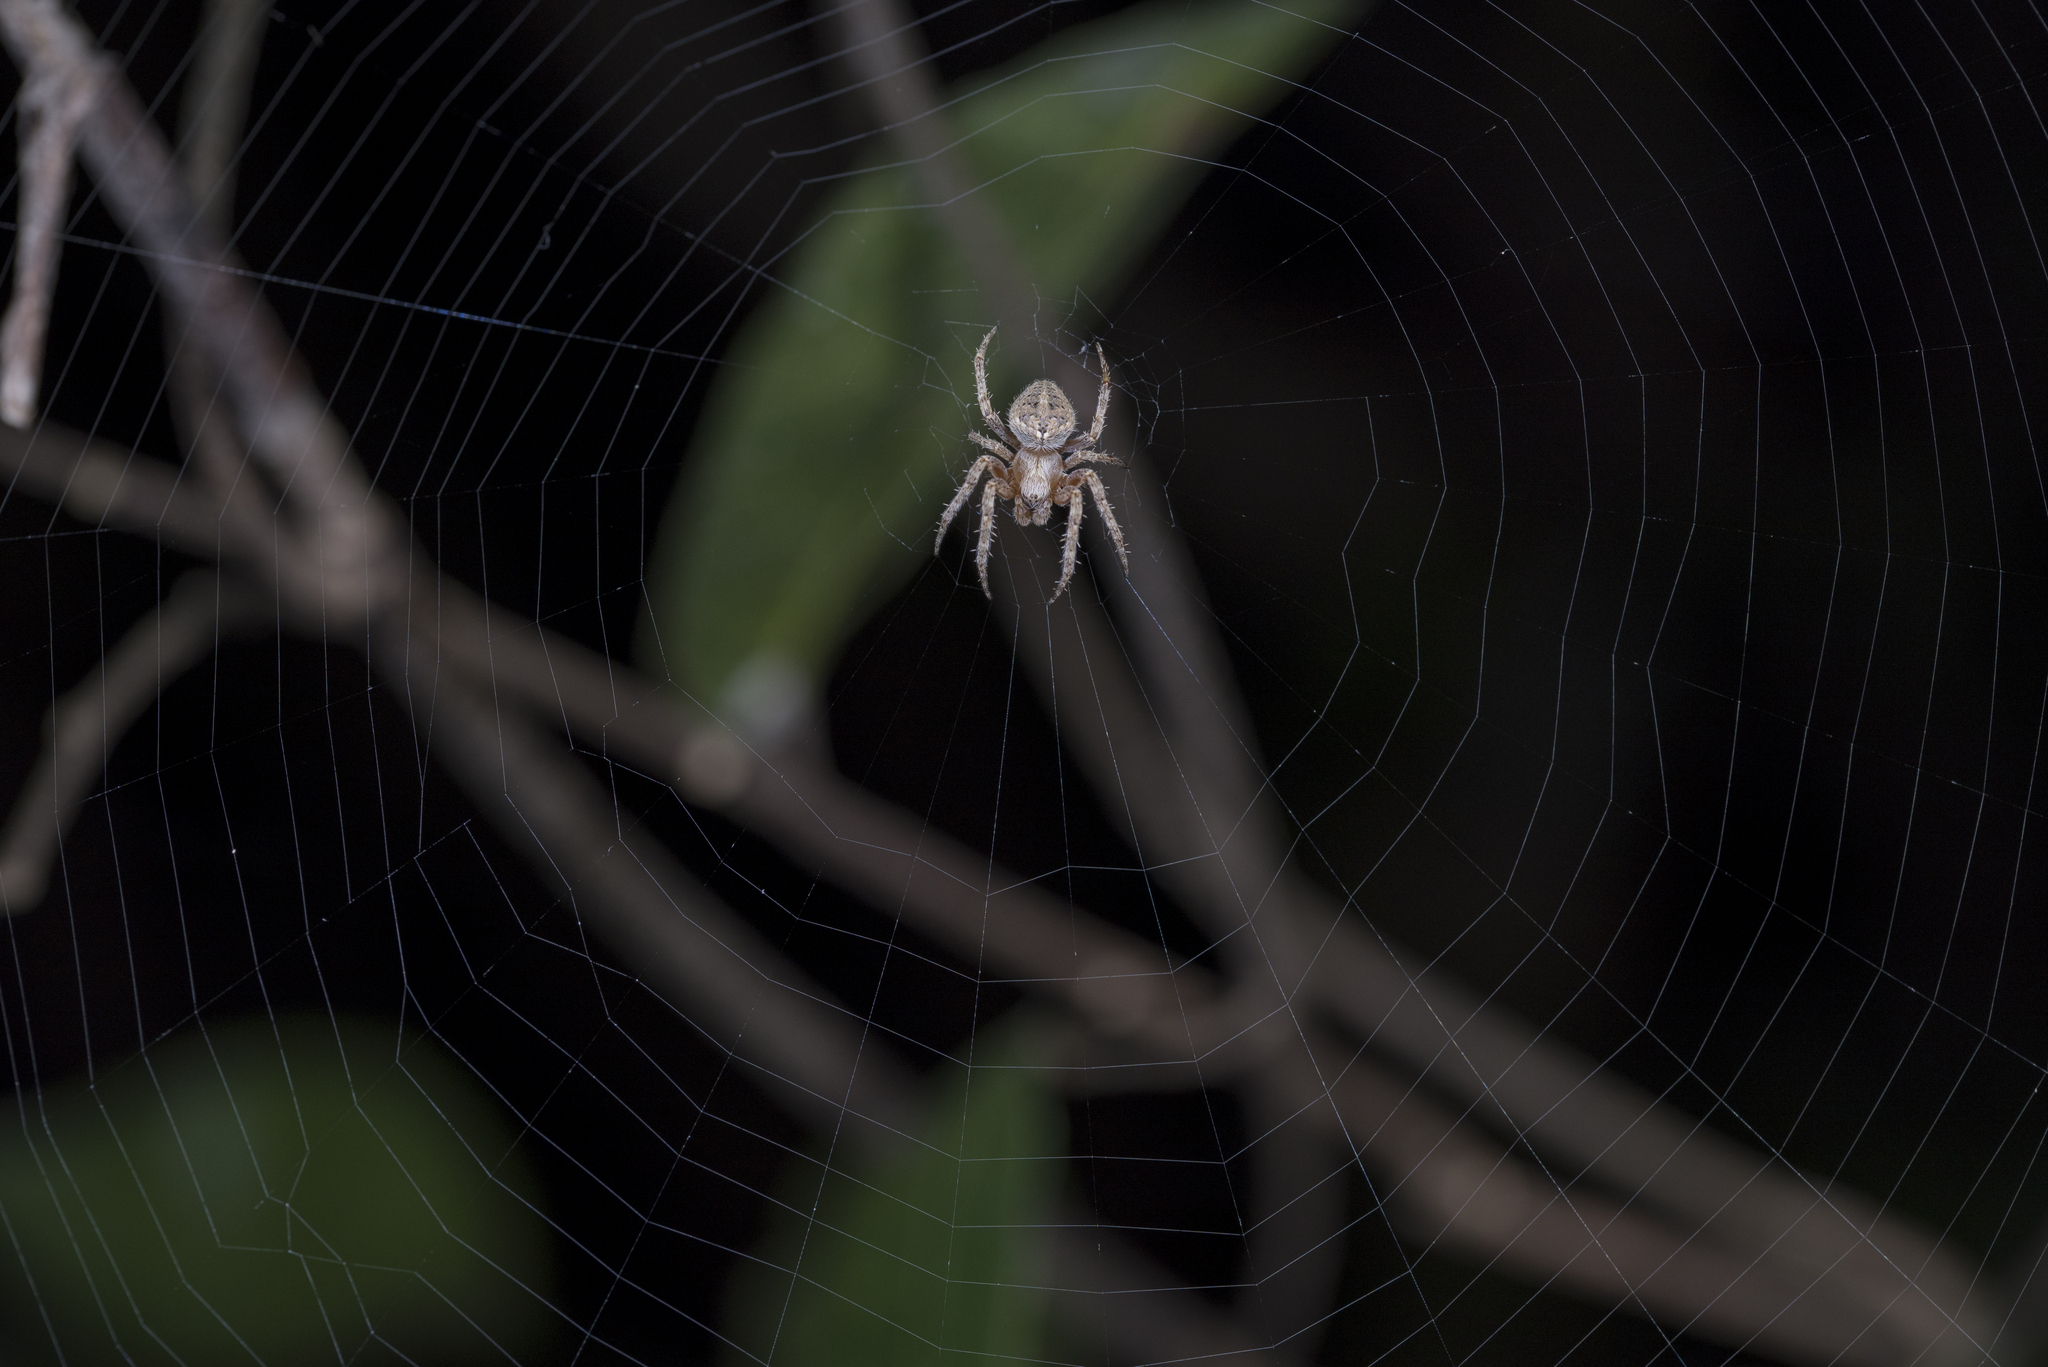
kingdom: Animalia
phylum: Arthropoda
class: Arachnida
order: Araneae
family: Araneidae
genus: Neoscona
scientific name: Neoscona punctigera
